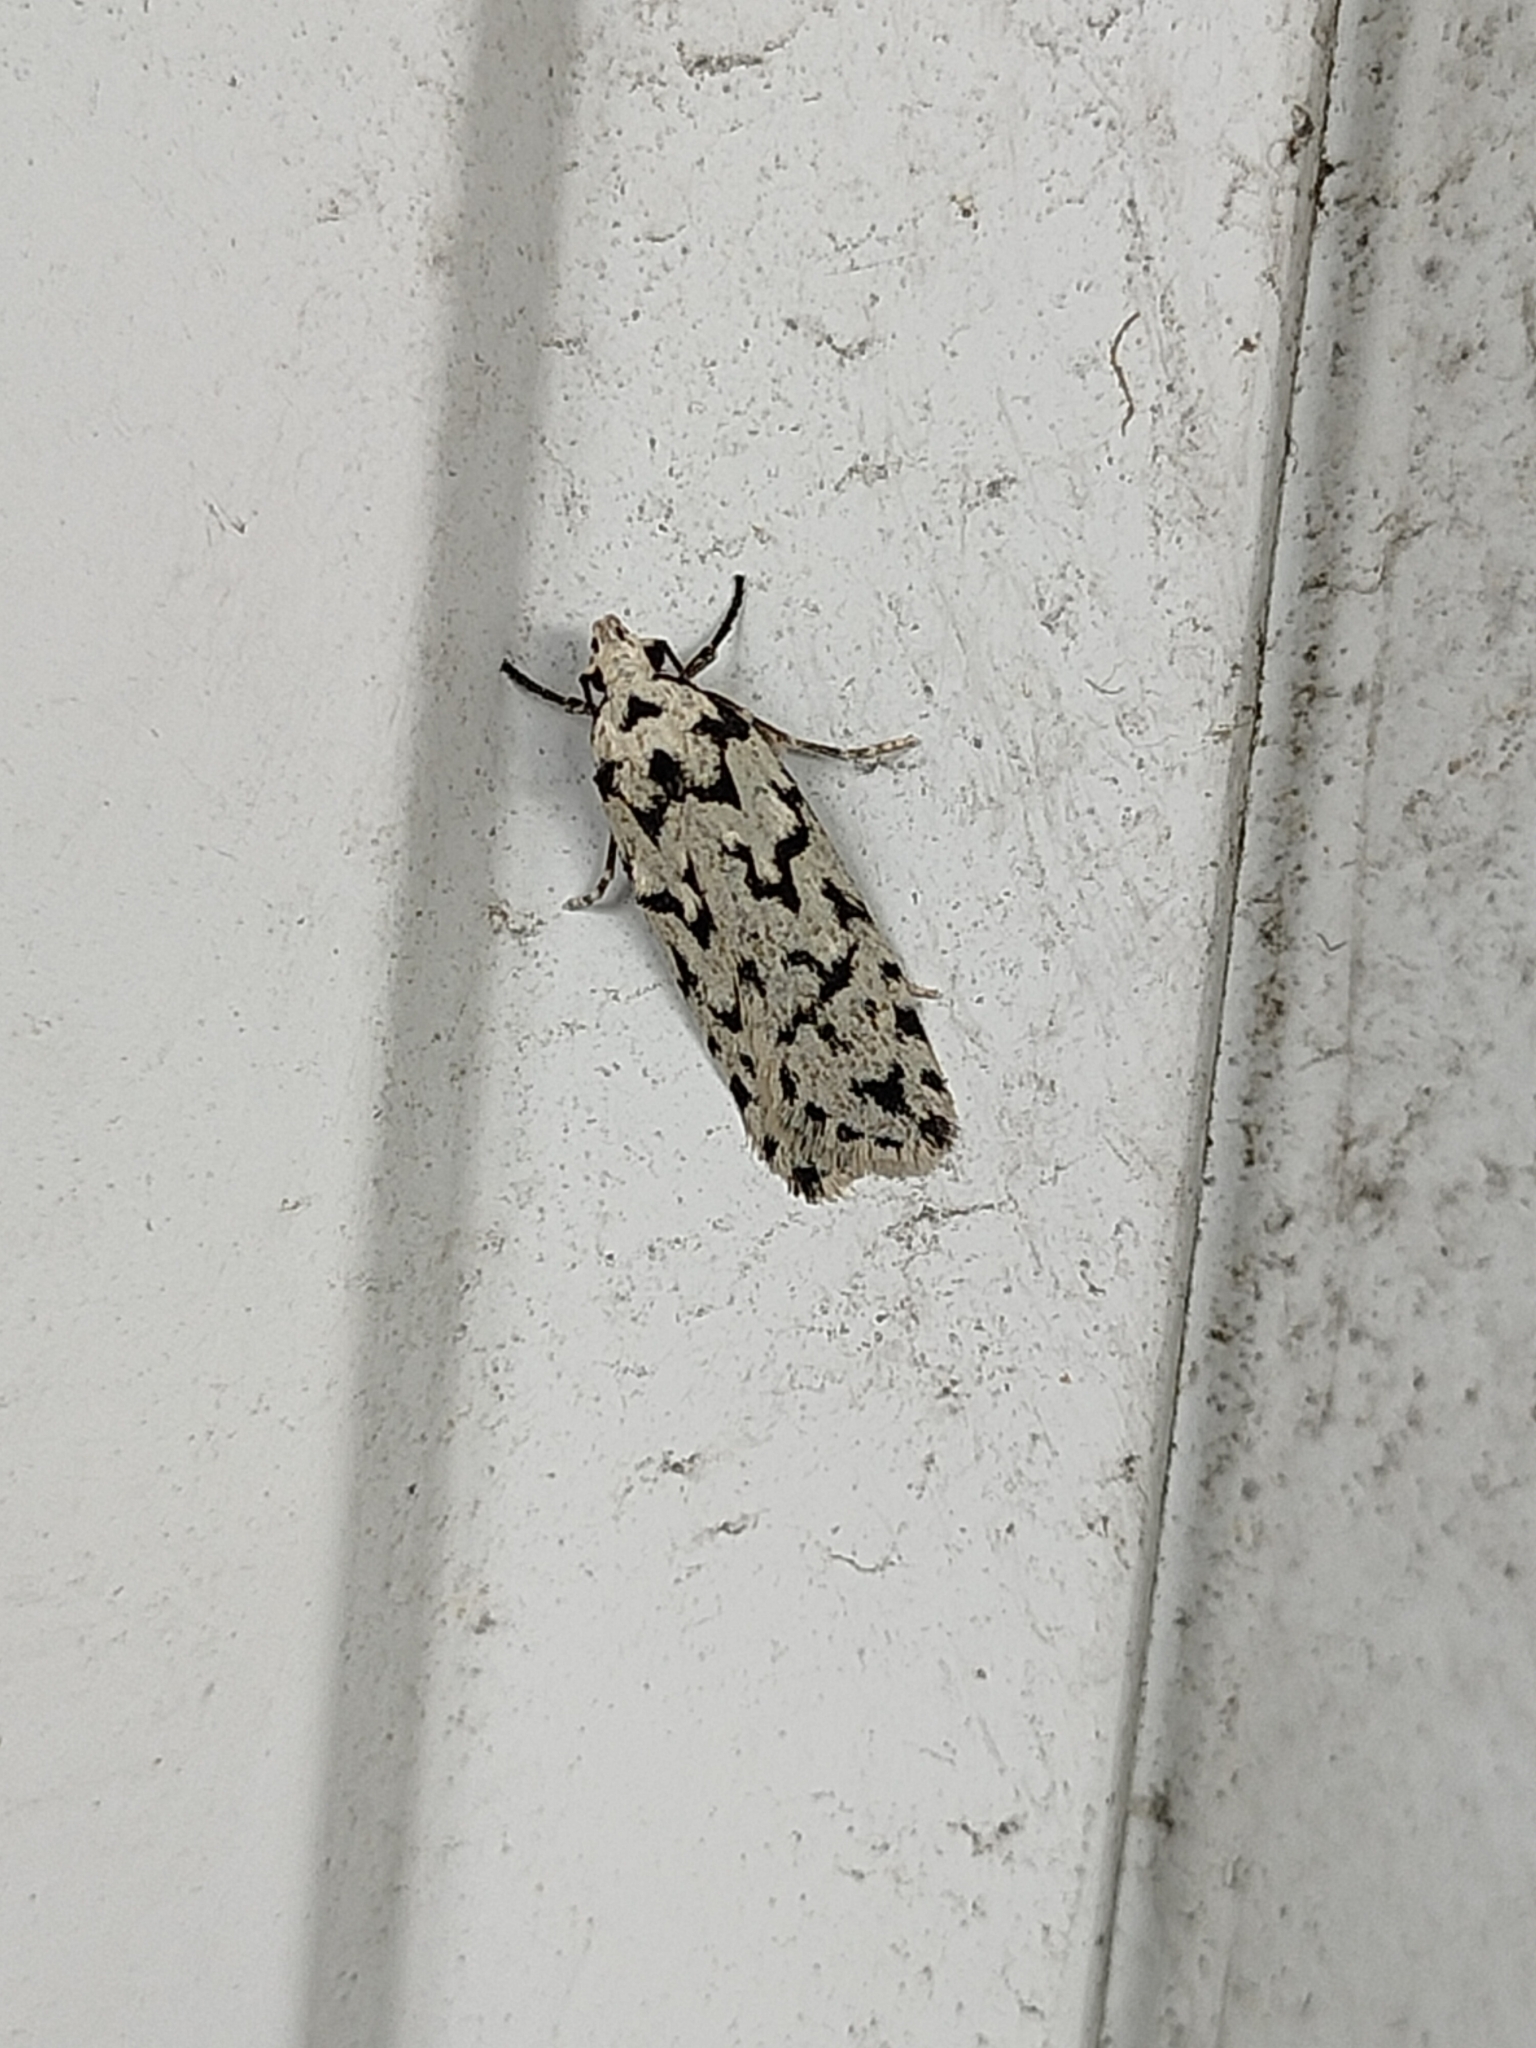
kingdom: Animalia
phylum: Arthropoda
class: Insecta
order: Lepidoptera
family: Oecophoridae
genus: Izatha
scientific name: Izatha katadiktya
